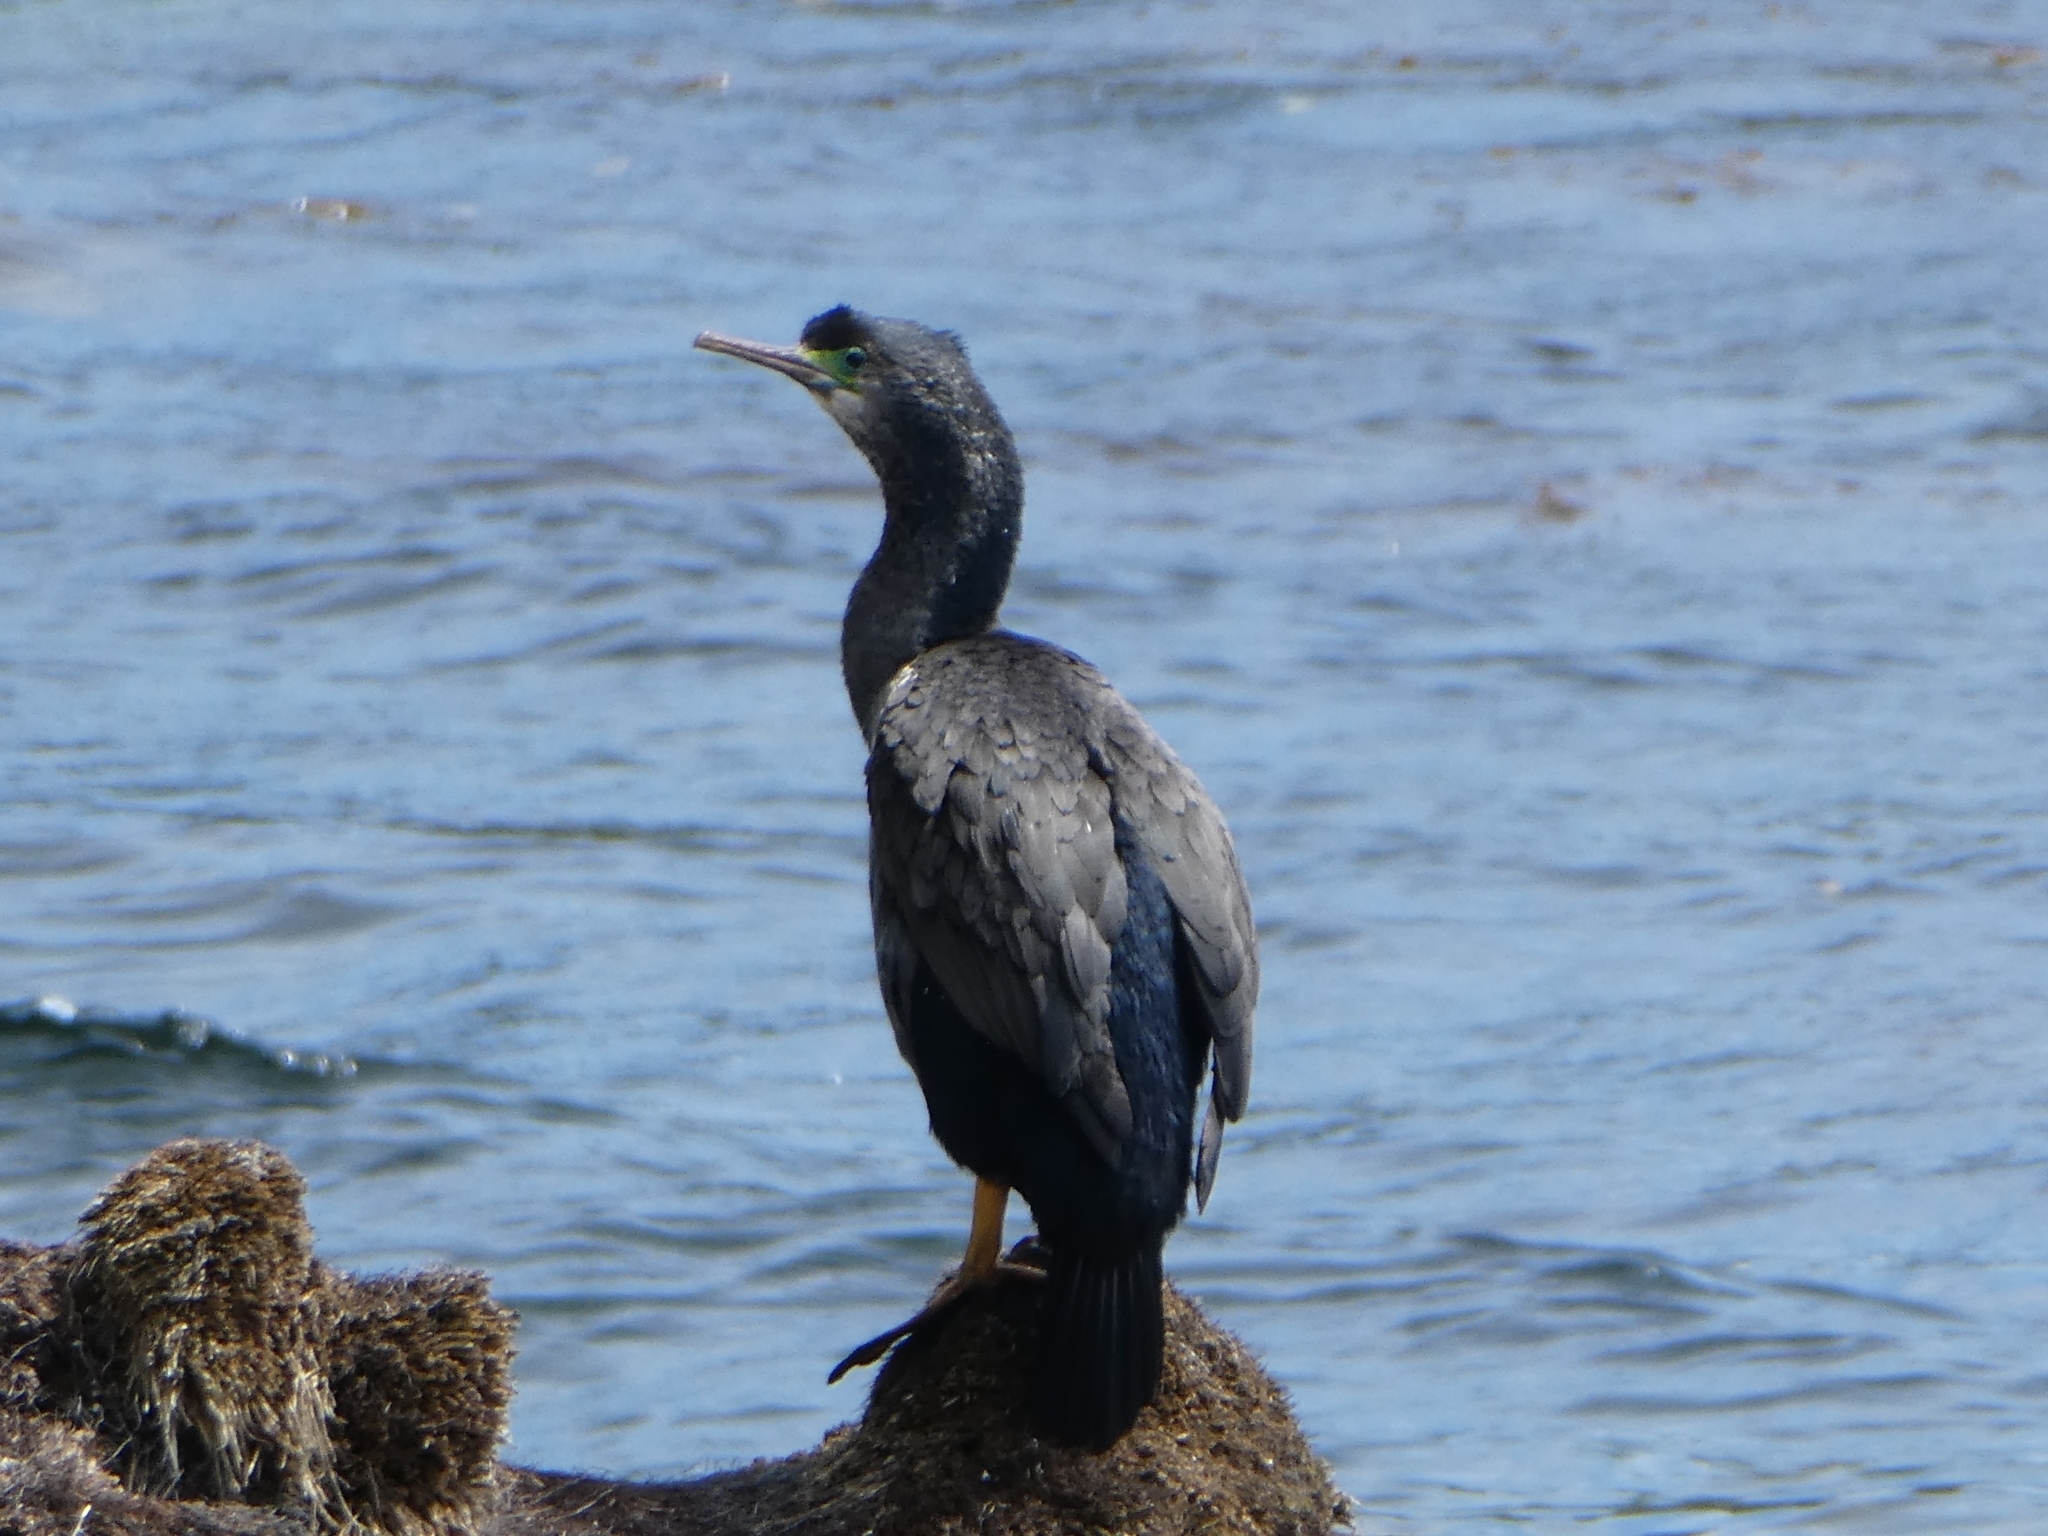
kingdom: Animalia
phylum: Chordata
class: Aves
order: Suliformes
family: Phalacrocoracidae
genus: Phalacrocorax
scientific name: Phalacrocorax punctatus
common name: Spotted shag
